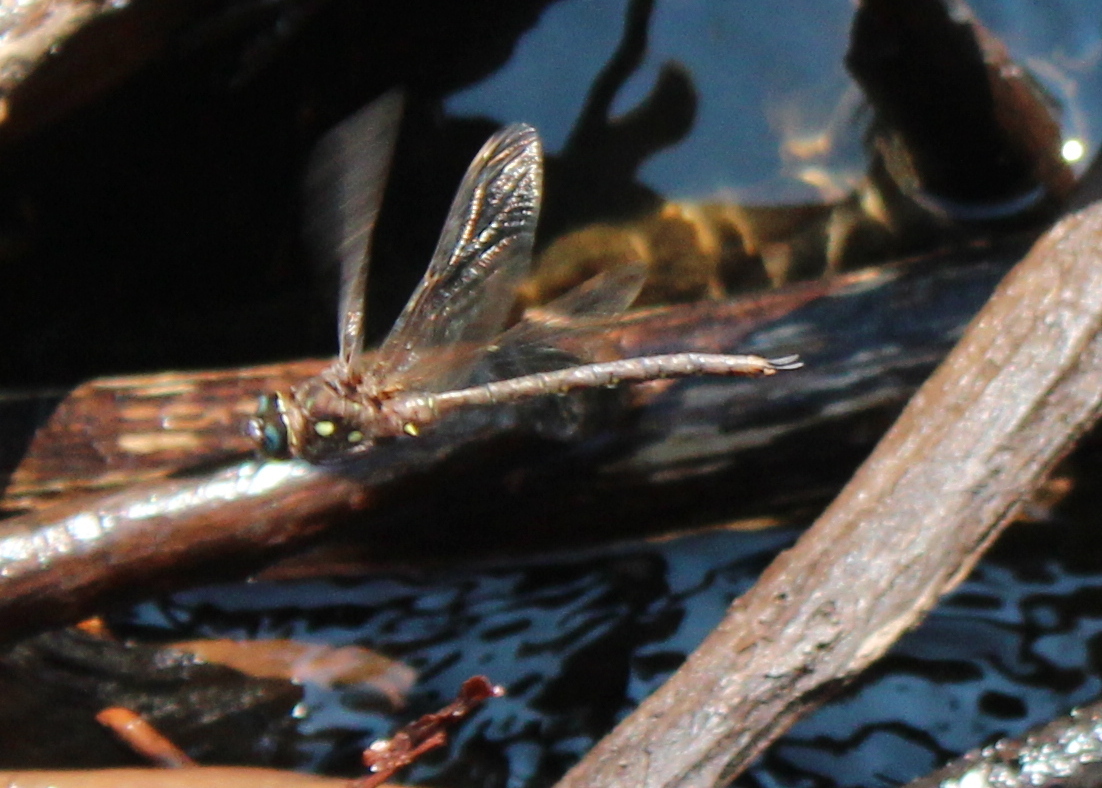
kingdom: Animalia
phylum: Arthropoda
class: Insecta
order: Odonata
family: Aeshnidae
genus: Boyeria
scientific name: Boyeria vinosa
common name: Fawn darner
